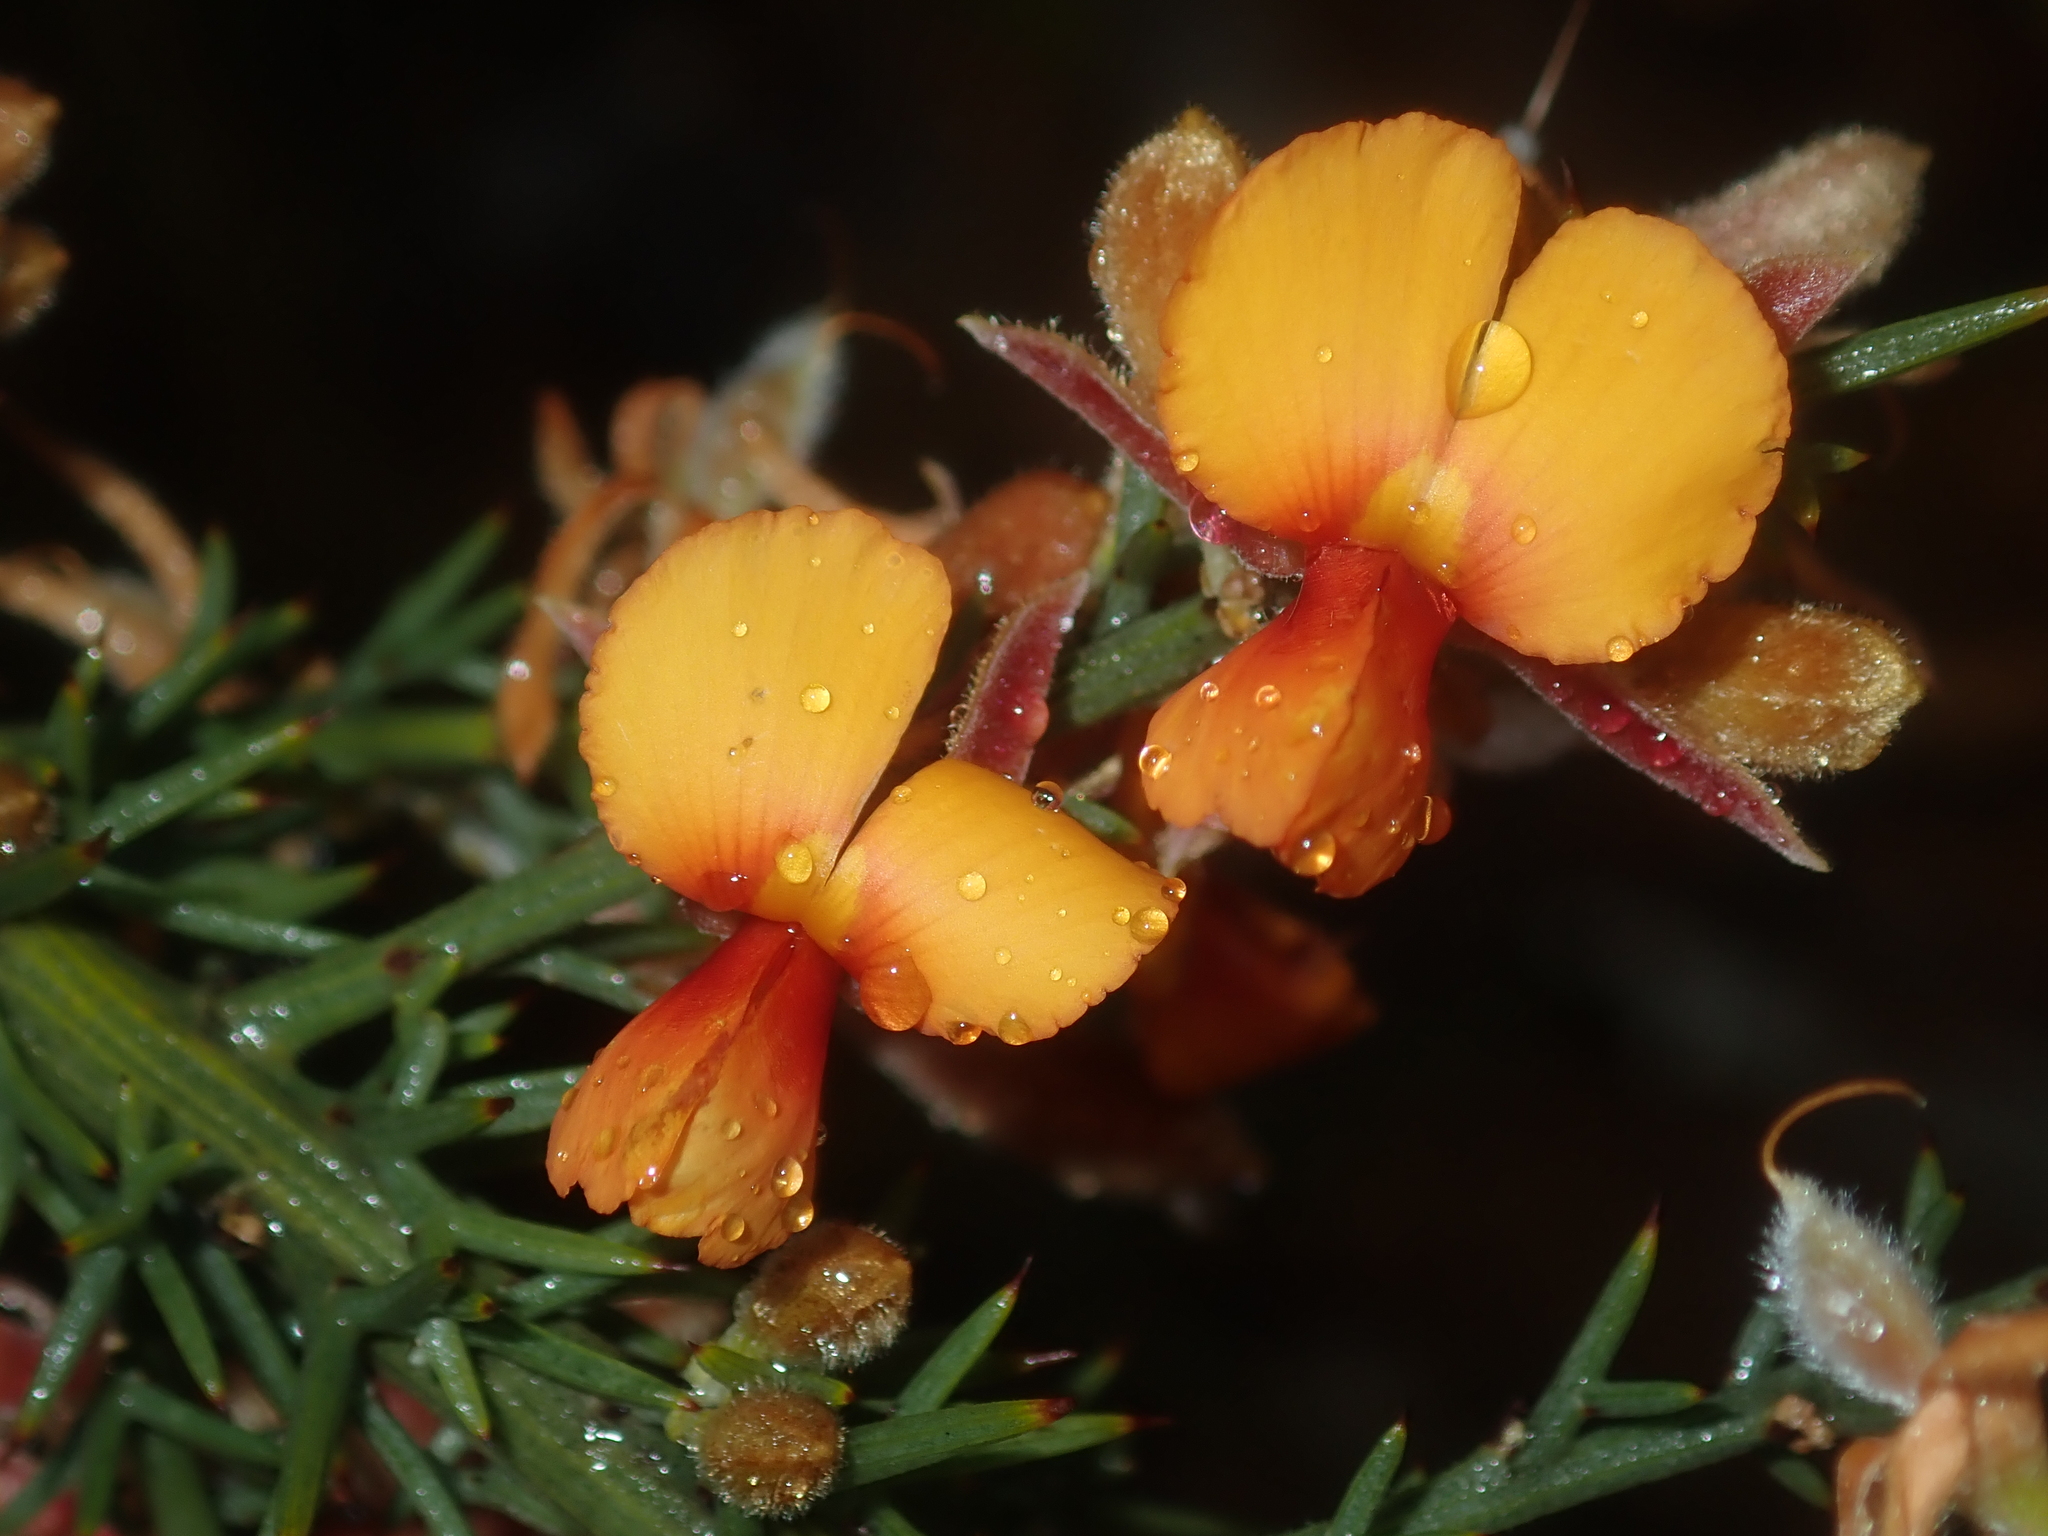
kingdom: Plantae
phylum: Tracheophyta
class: Magnoliopsida
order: Fabales
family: Fabaceae
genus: Jacksonia
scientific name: Jacksonia hakeoides
